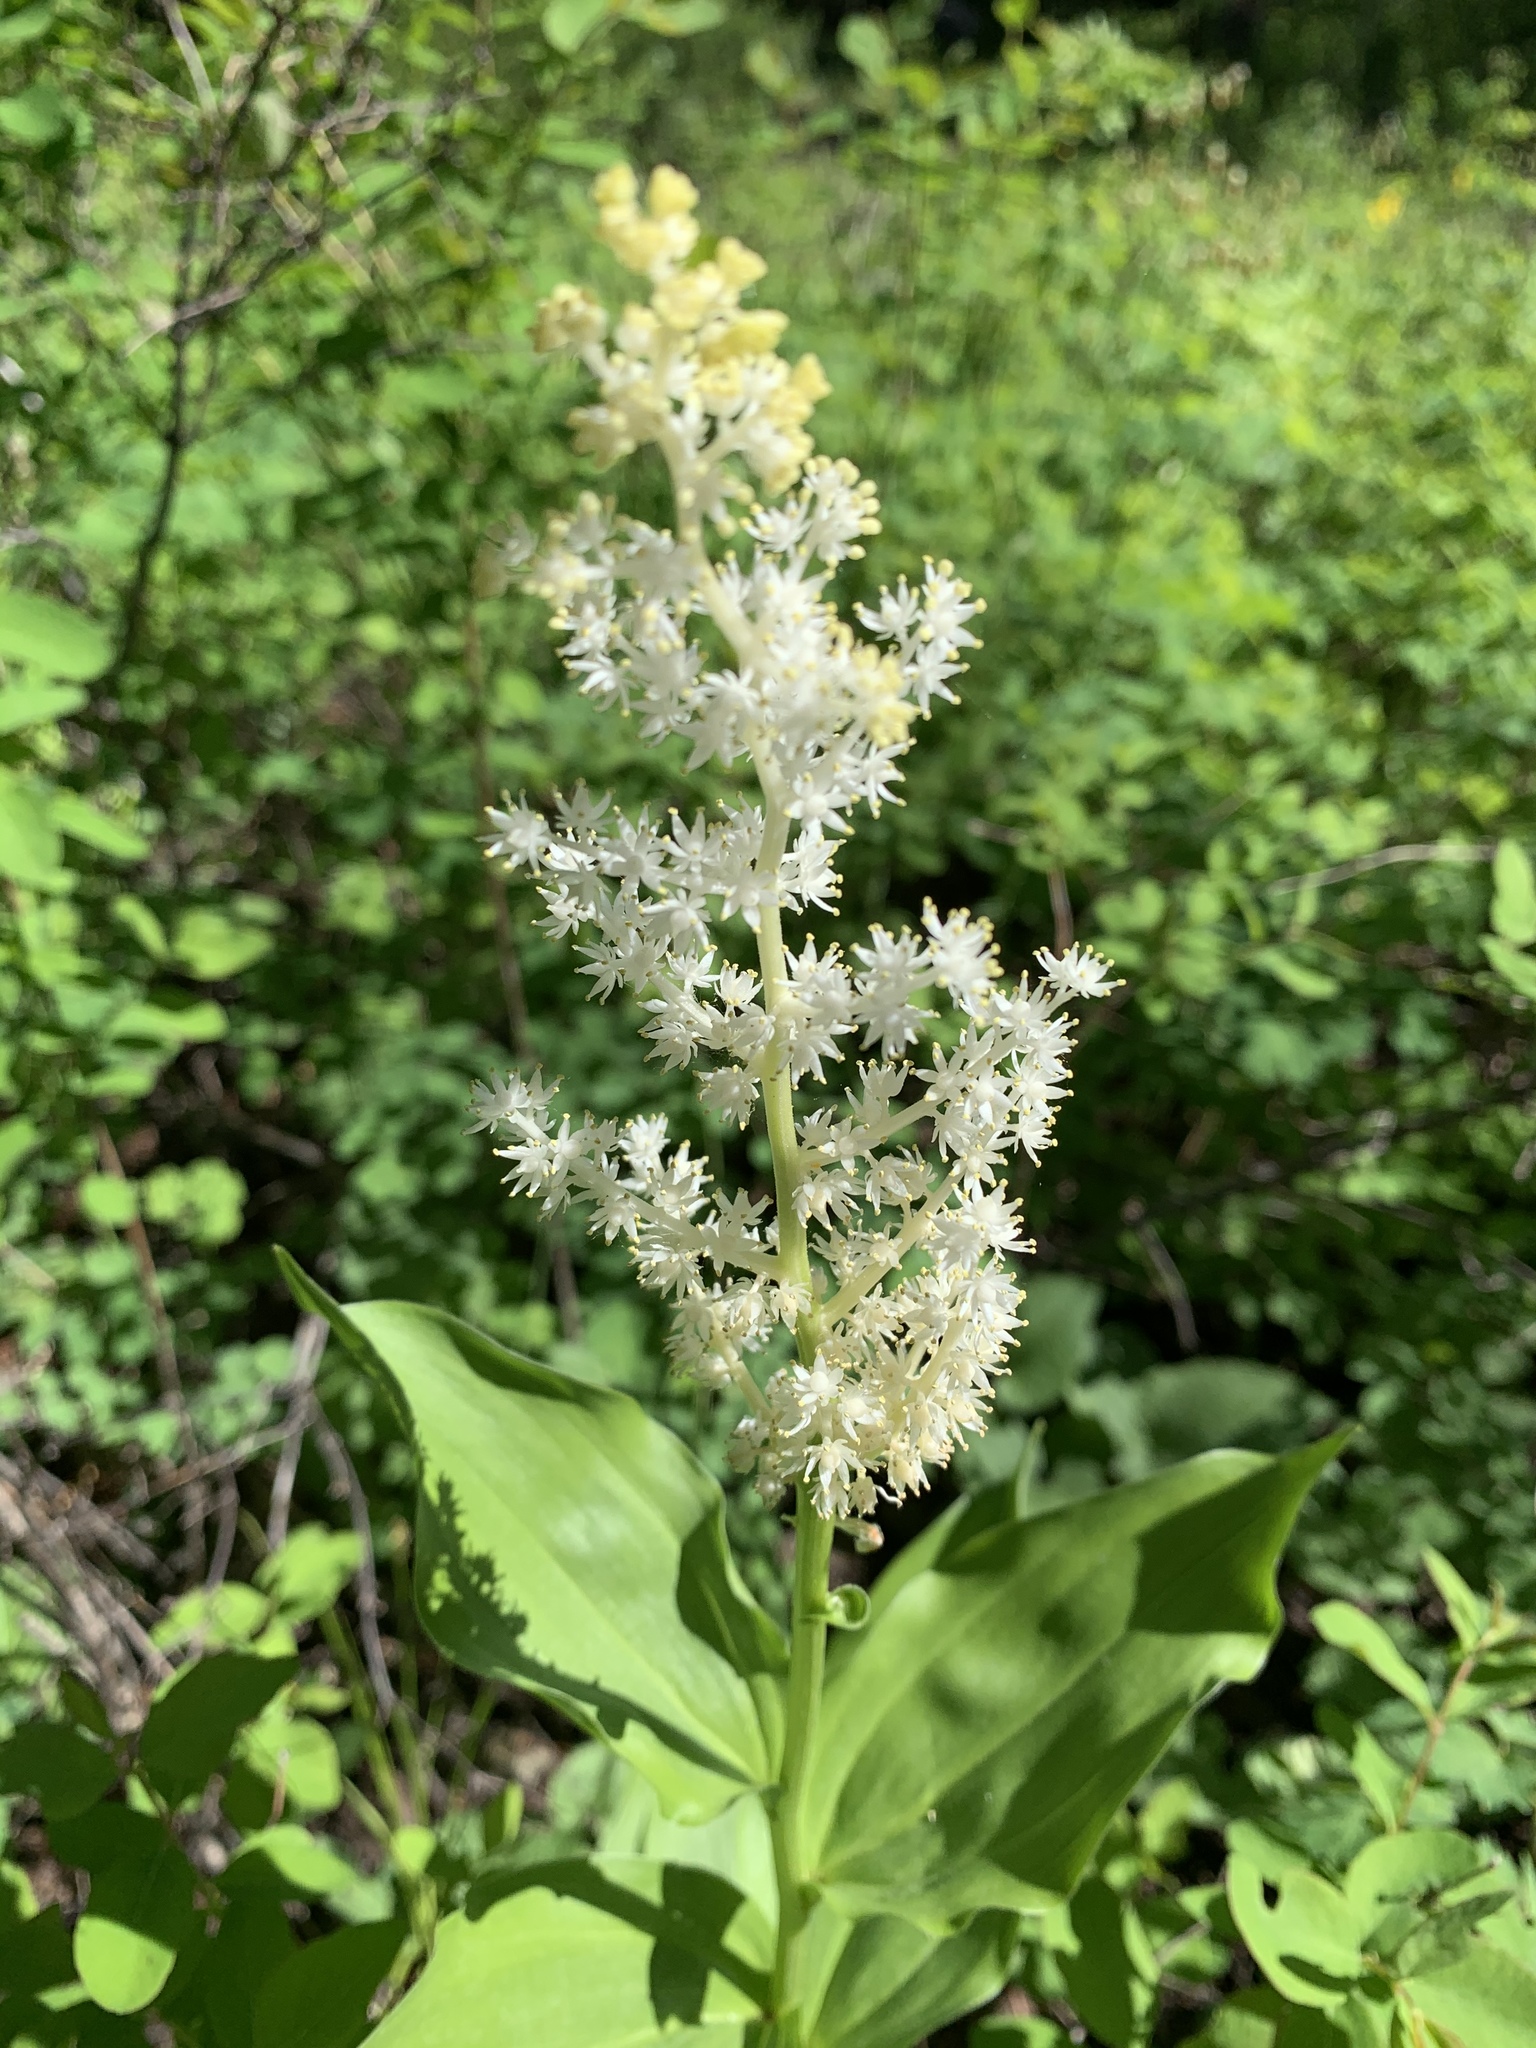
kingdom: Plantae
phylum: Tracheophyta
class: Liliopsida
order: Asparagales
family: Asparagaceae
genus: Maianthemum
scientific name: Maianthemum racemosum
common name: False spikenard
